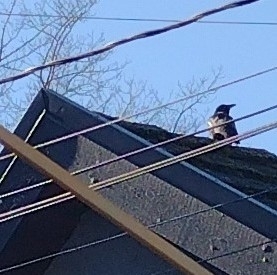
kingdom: Animalia
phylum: Chordata
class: Aves
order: Passeriformes
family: Corvidae
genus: Corvus
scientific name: Corvus brachyrhynchos
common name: American crow
